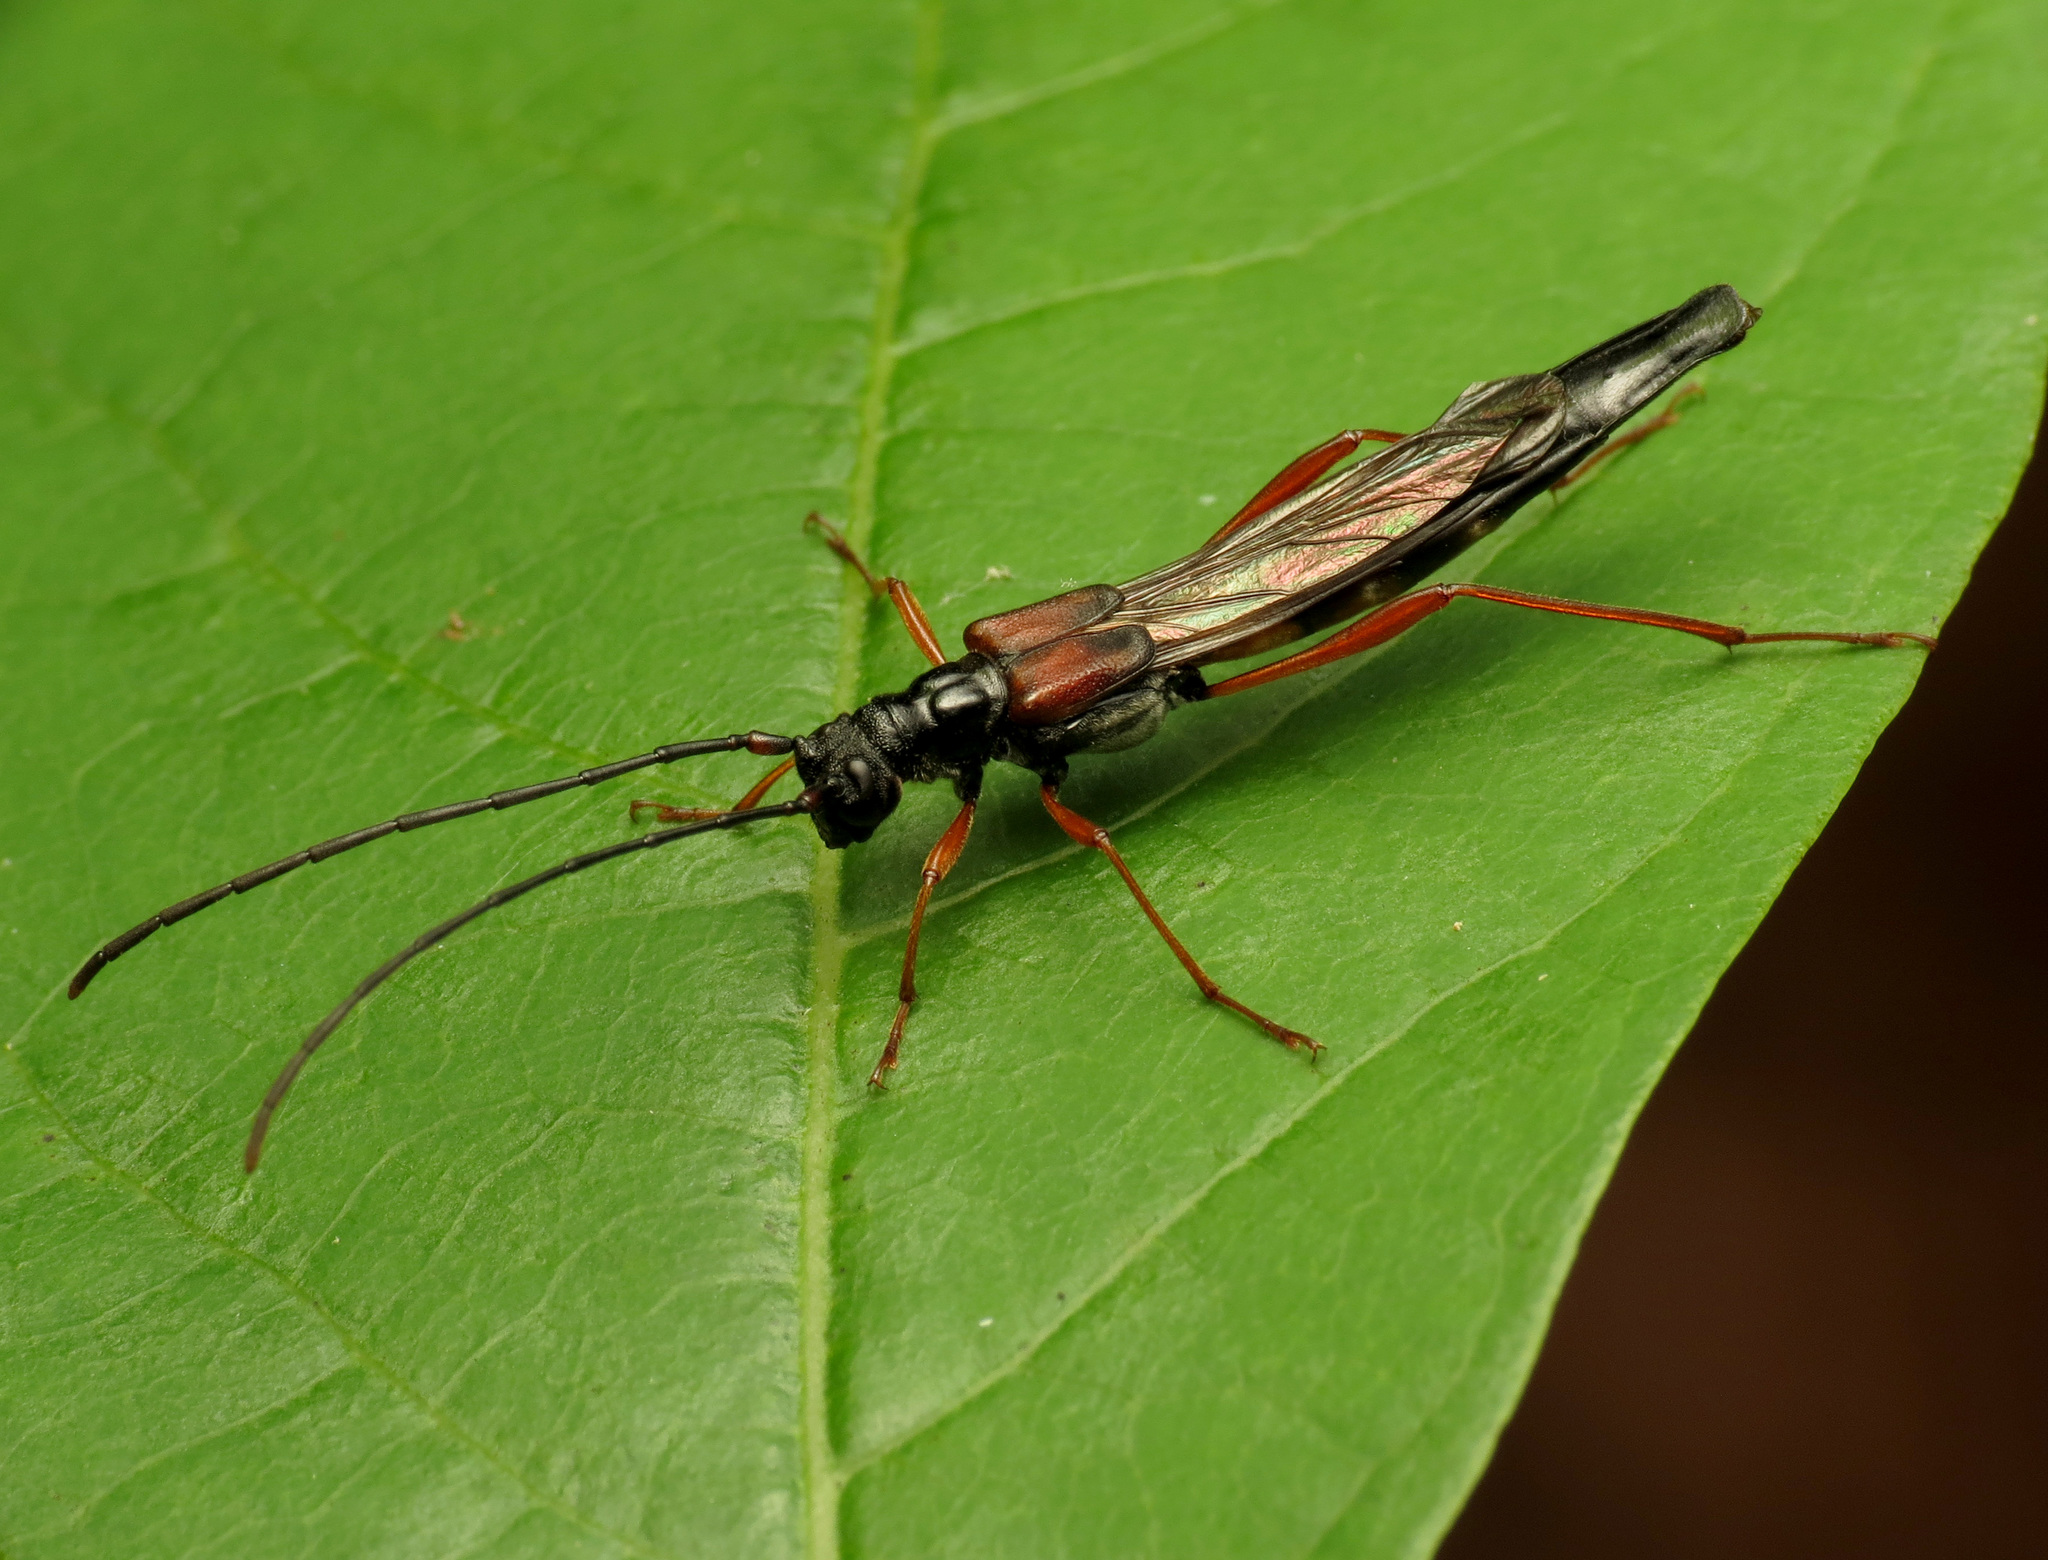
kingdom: Animalia
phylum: Arthropoda
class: Insecta
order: Coleoptera
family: Cerambycidae
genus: Necydalis
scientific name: Necydalis mellita
